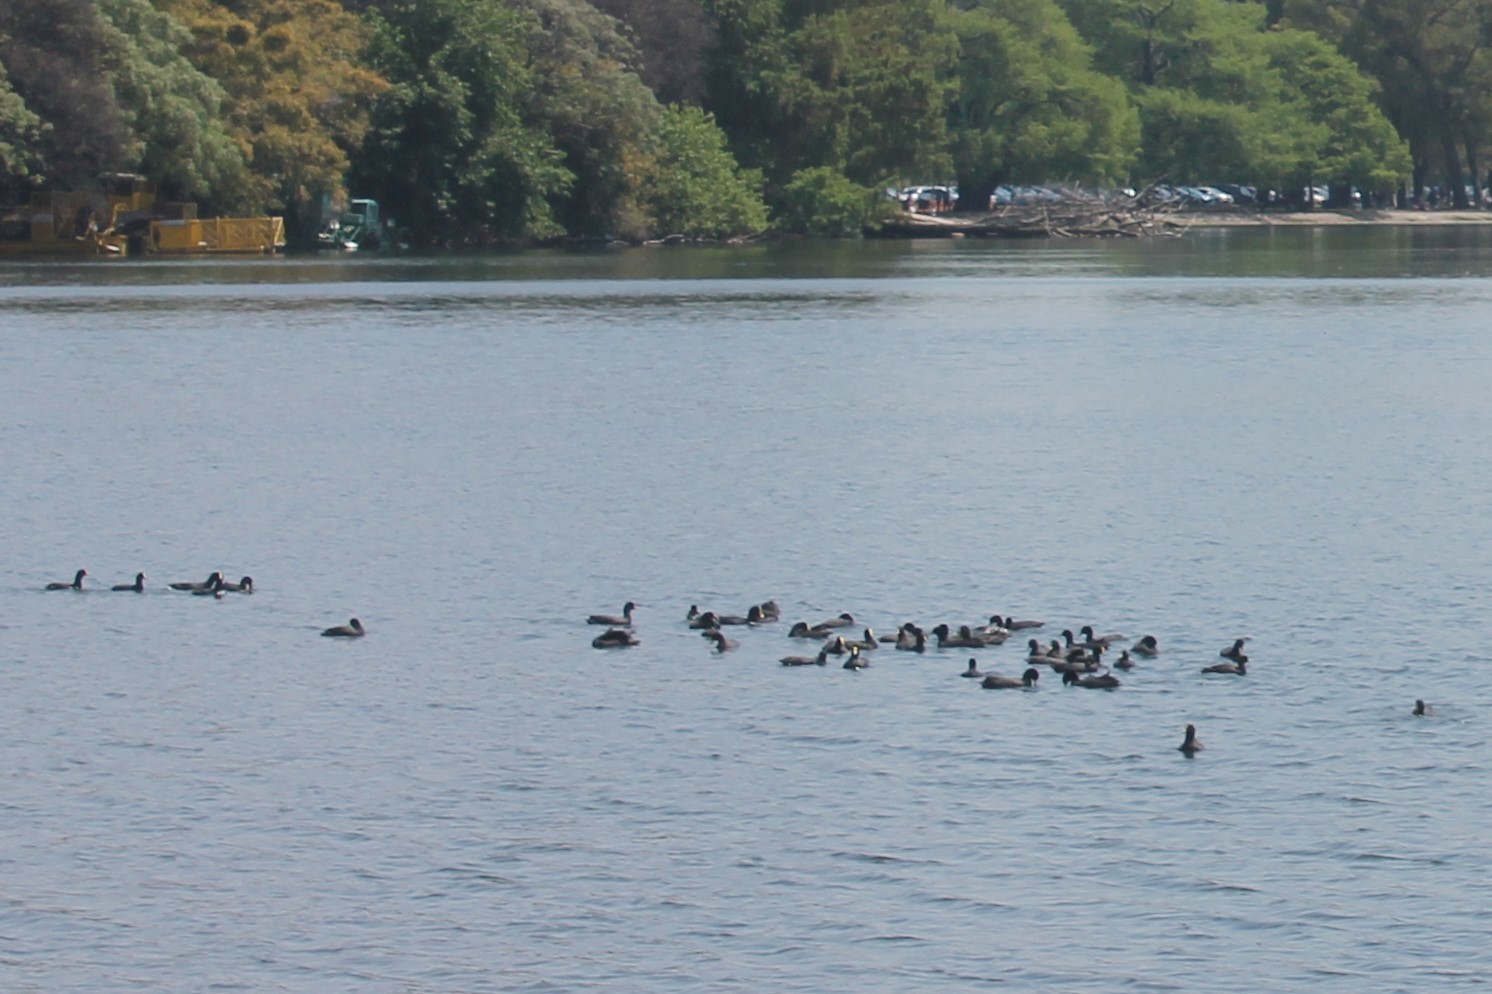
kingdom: Animalia
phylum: Chordata
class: Aves
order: Gruiformes
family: Rallidae
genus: Fulica
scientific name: Fulica leucoptera
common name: White-winged coot
